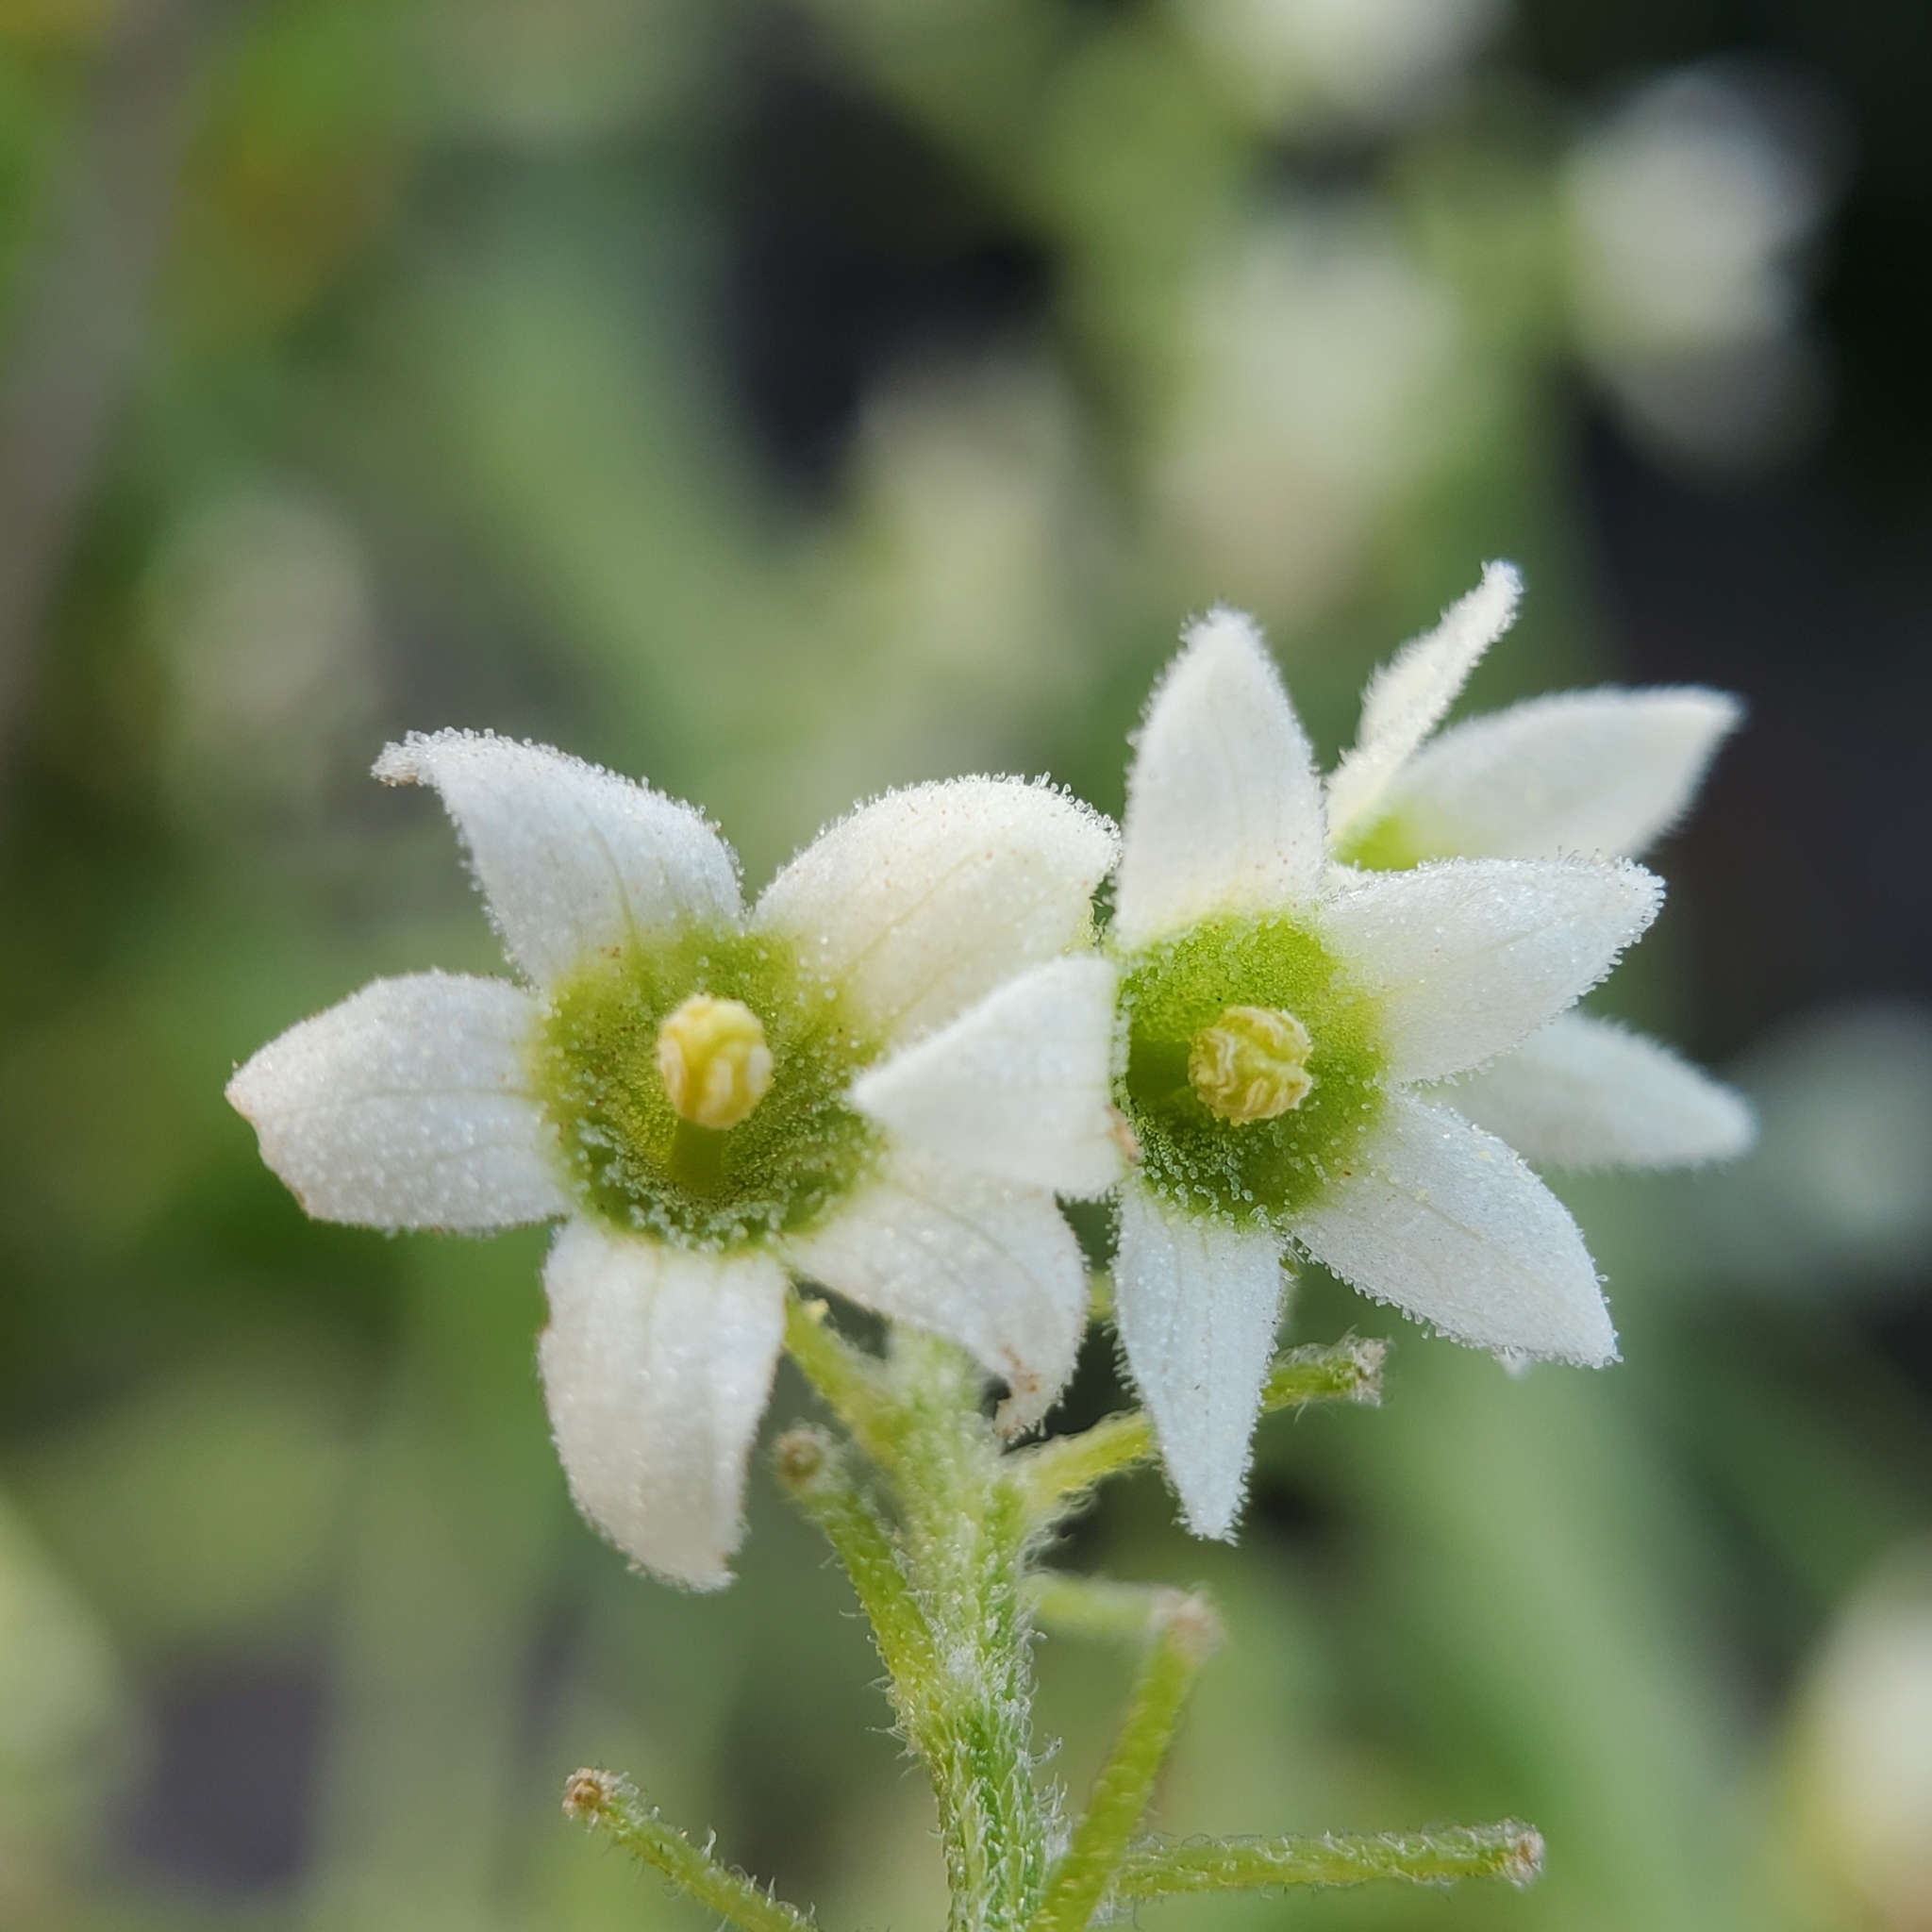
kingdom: Plantae
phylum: Tracheophyta
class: Magnoliopsida
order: Cucurbitales
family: Cucurbitaceae
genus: Marah
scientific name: Marah macrocarpa
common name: Cucamonga manroot
